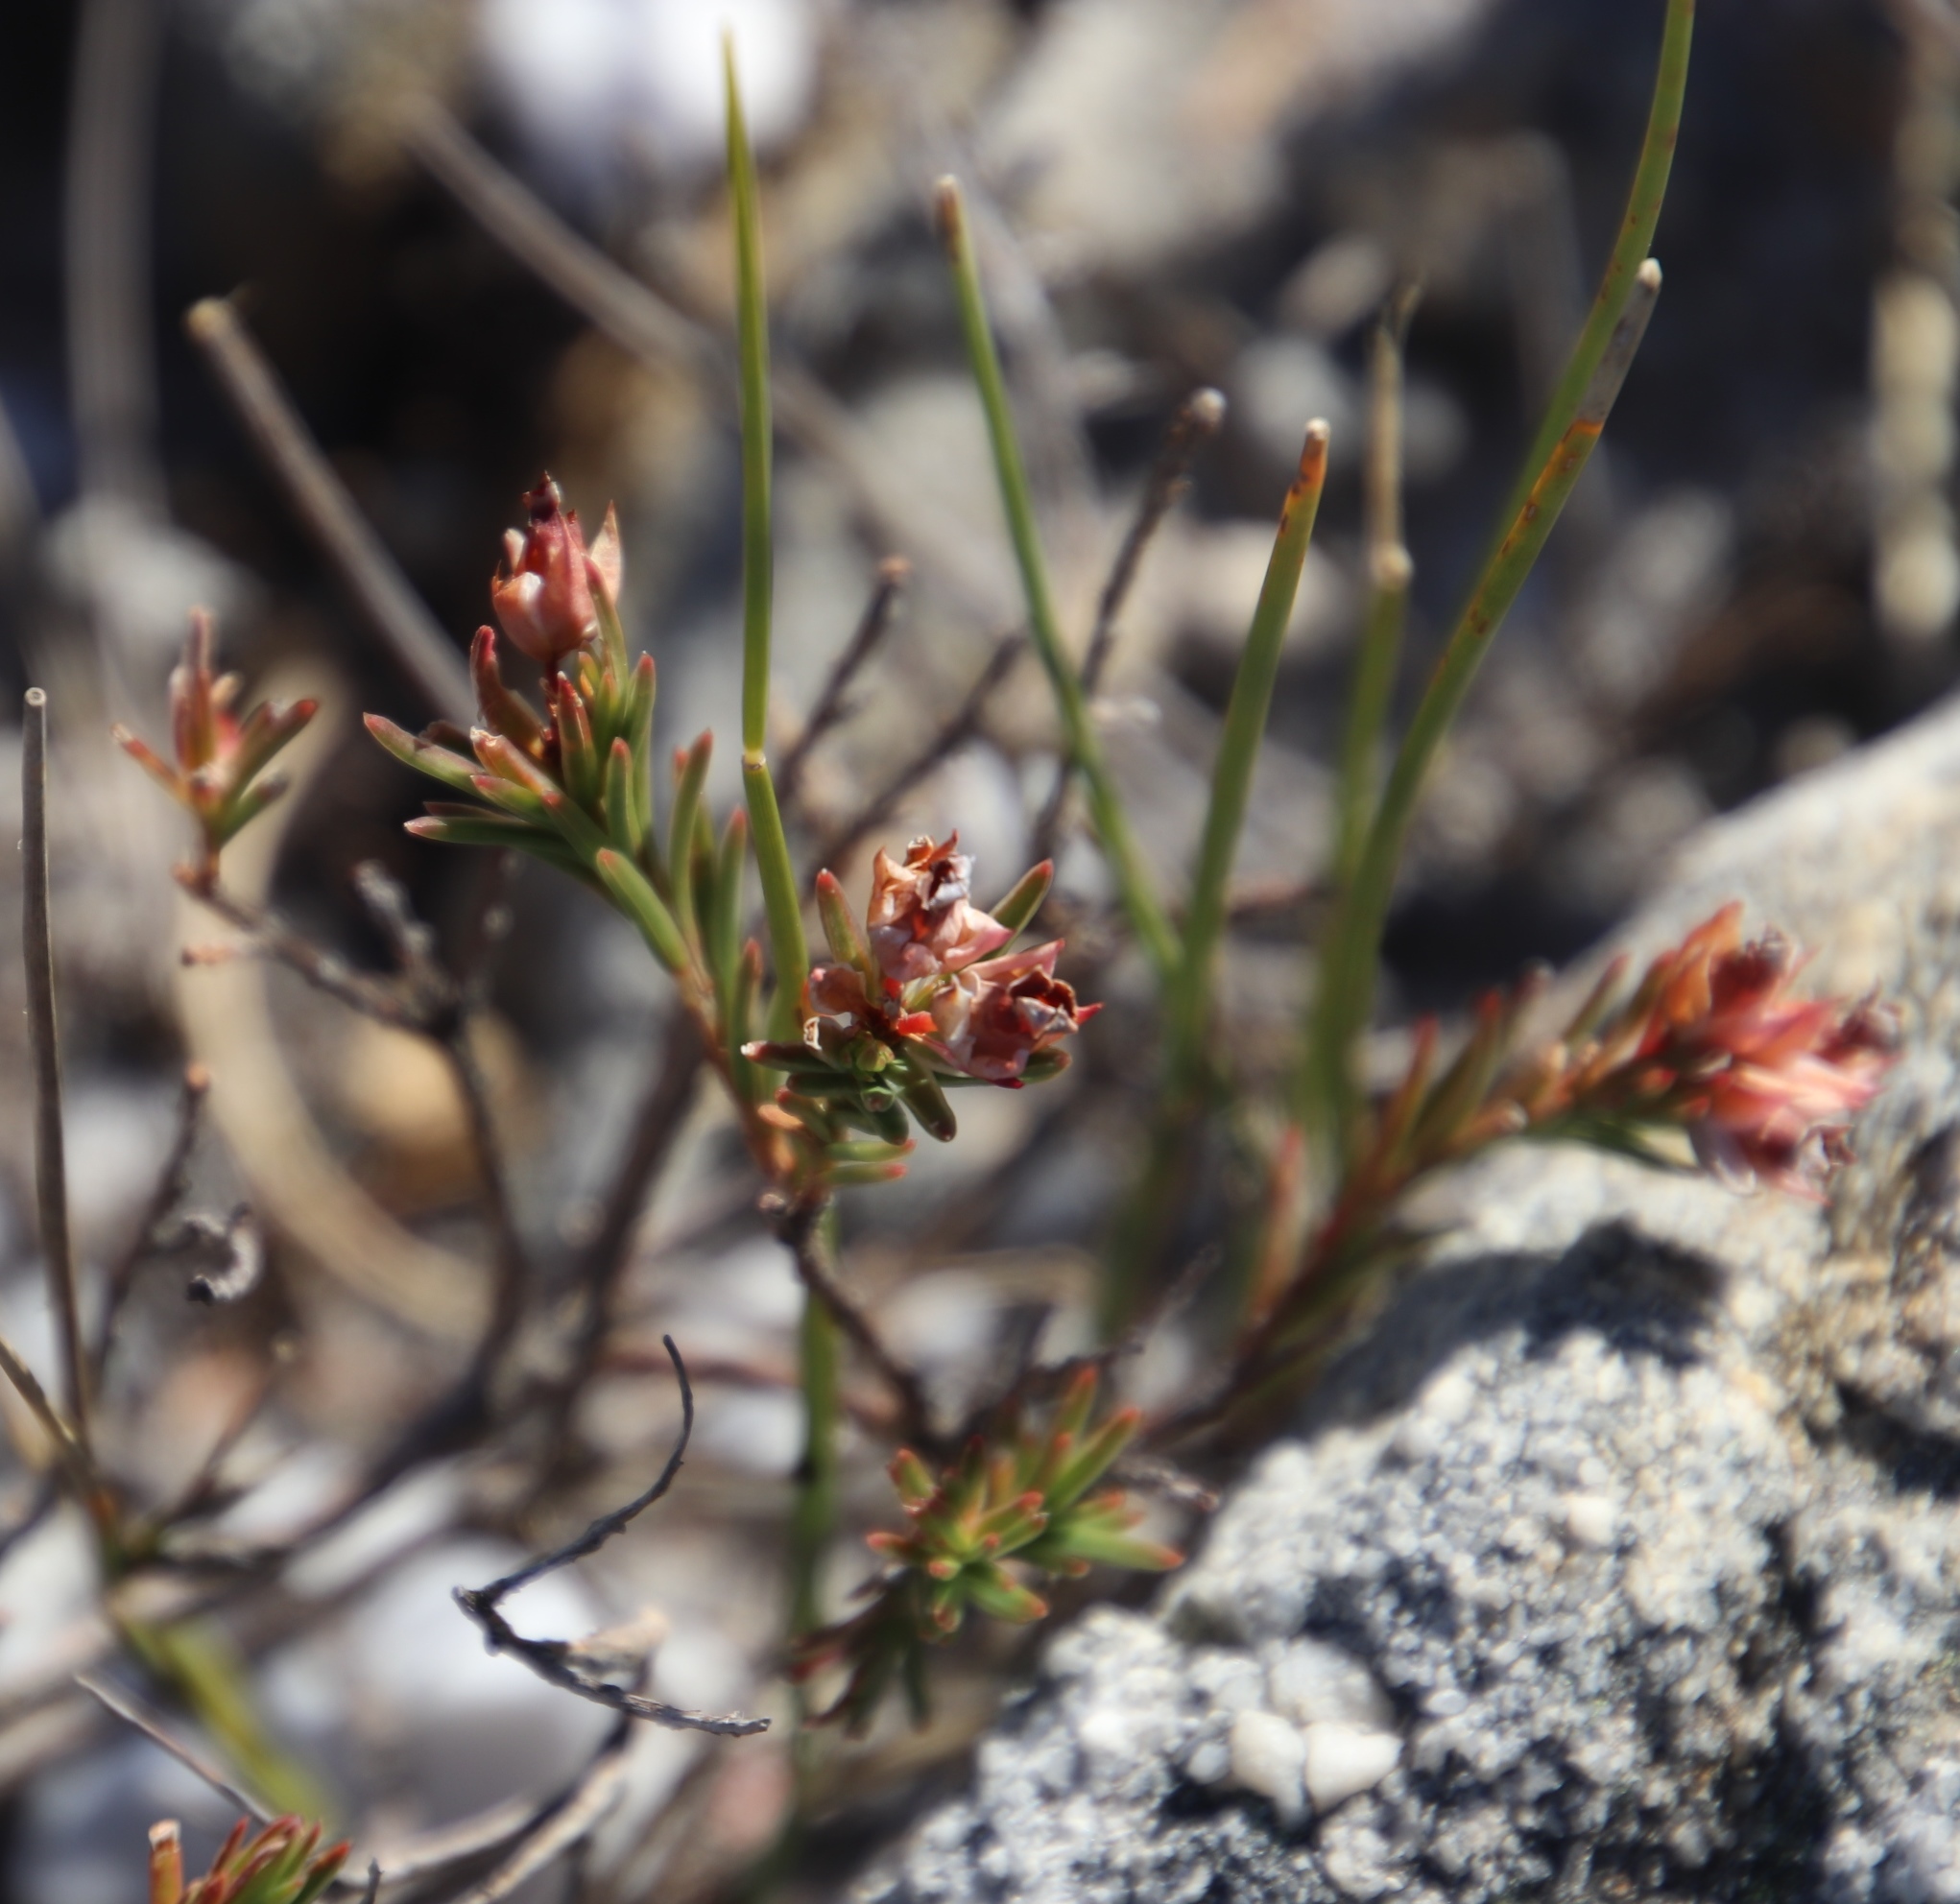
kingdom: Plantae
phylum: Tracheophyta
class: Magnoliopsida
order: Ericales
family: Ericaceae
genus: Erica
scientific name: Erica taxifolia
